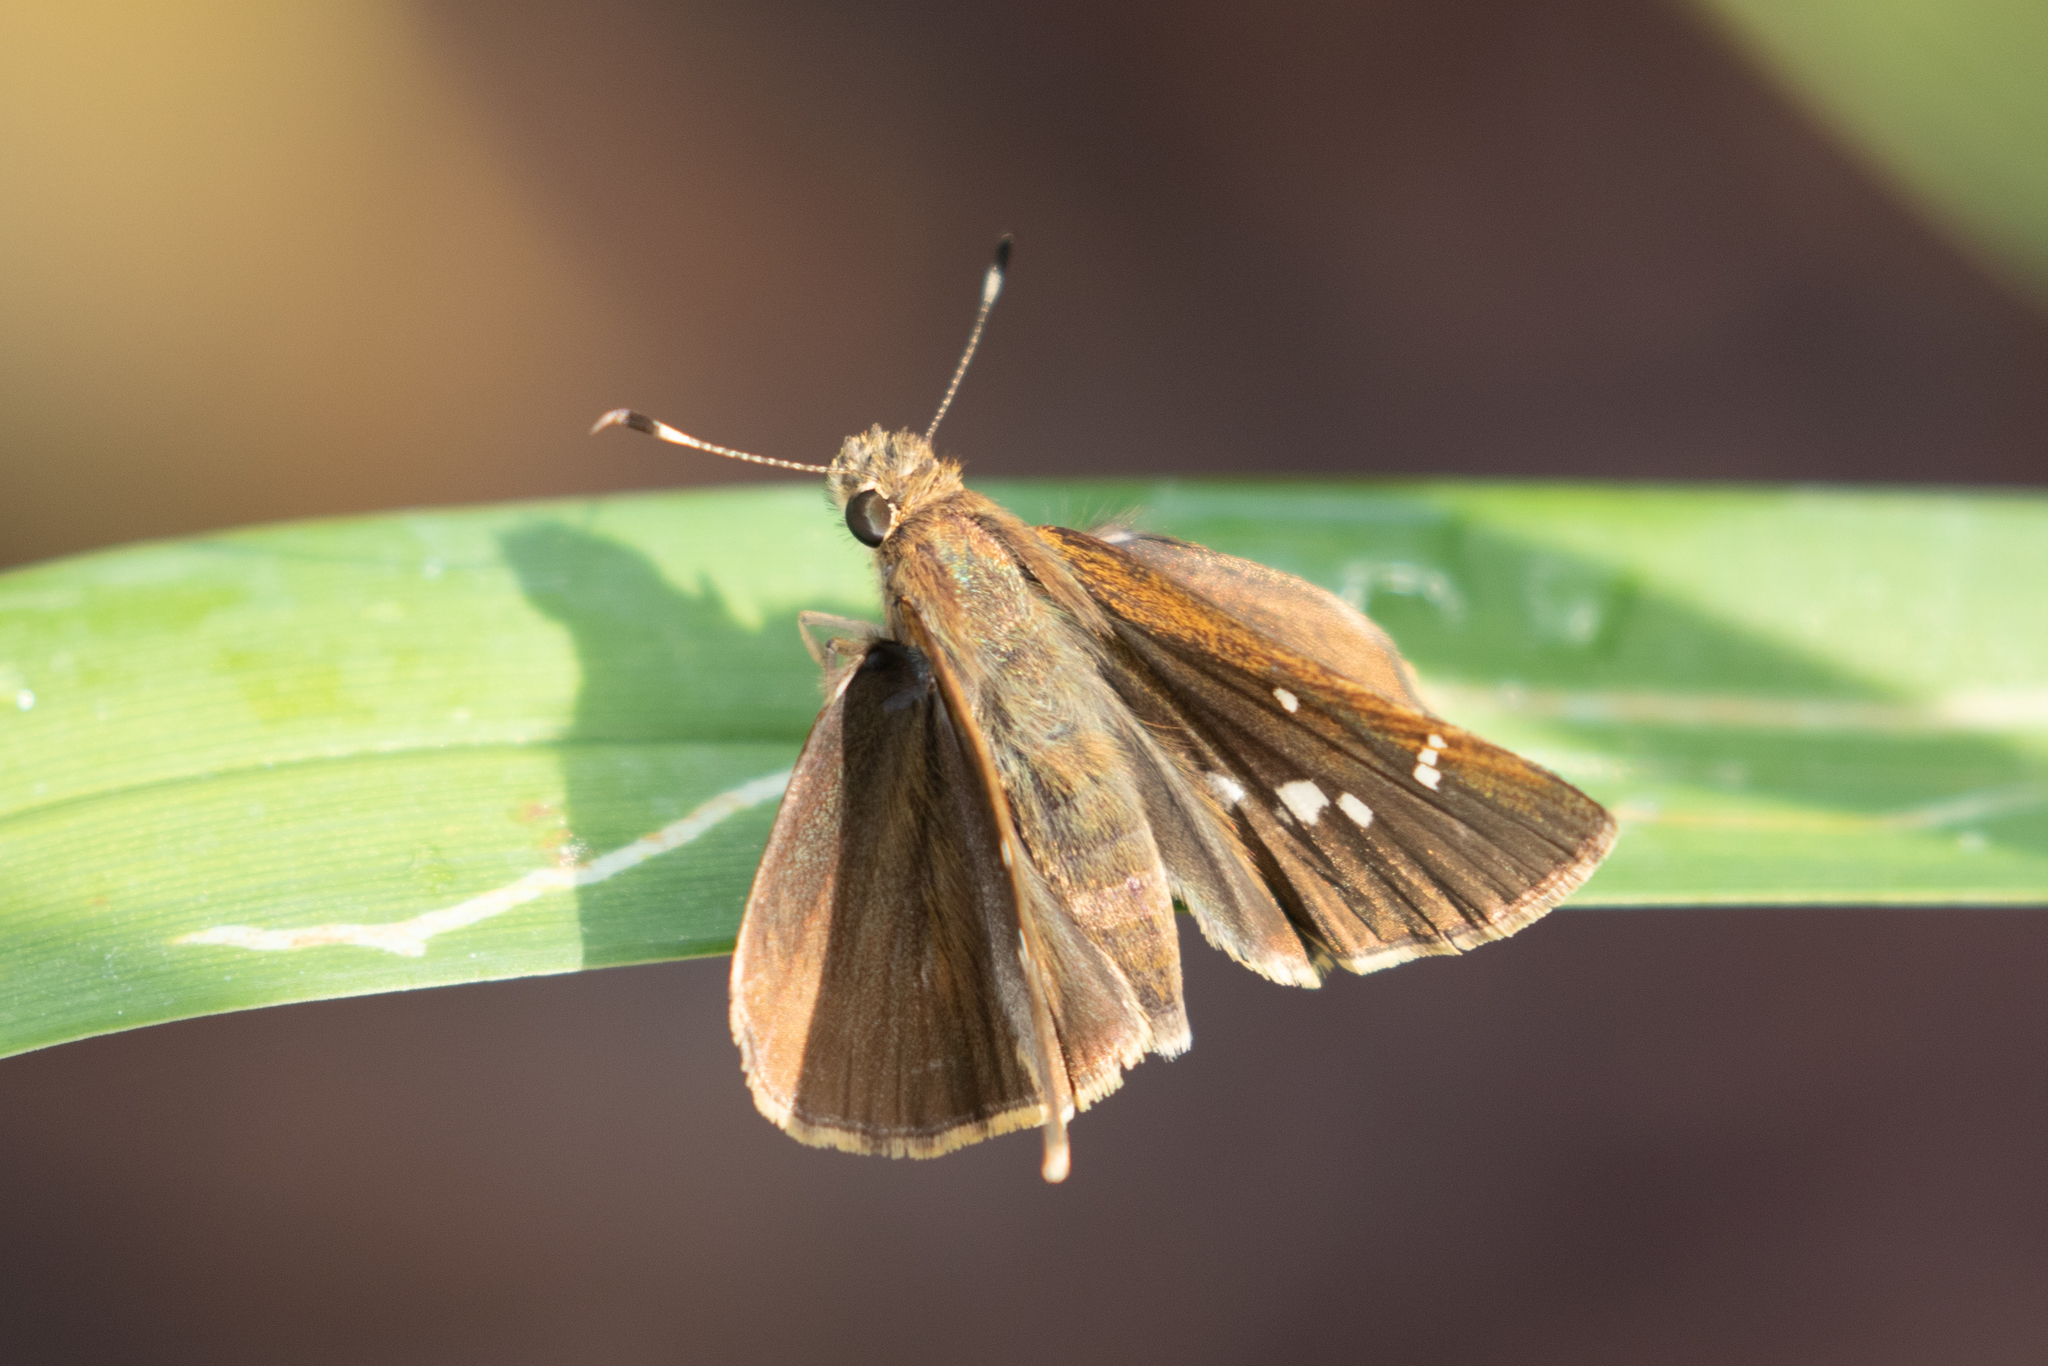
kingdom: Animalia
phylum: Arthropoda
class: Insecta
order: Lepidoptera
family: Hesperiidae
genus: Lerema
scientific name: Lerema accius
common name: Clouded skipper
